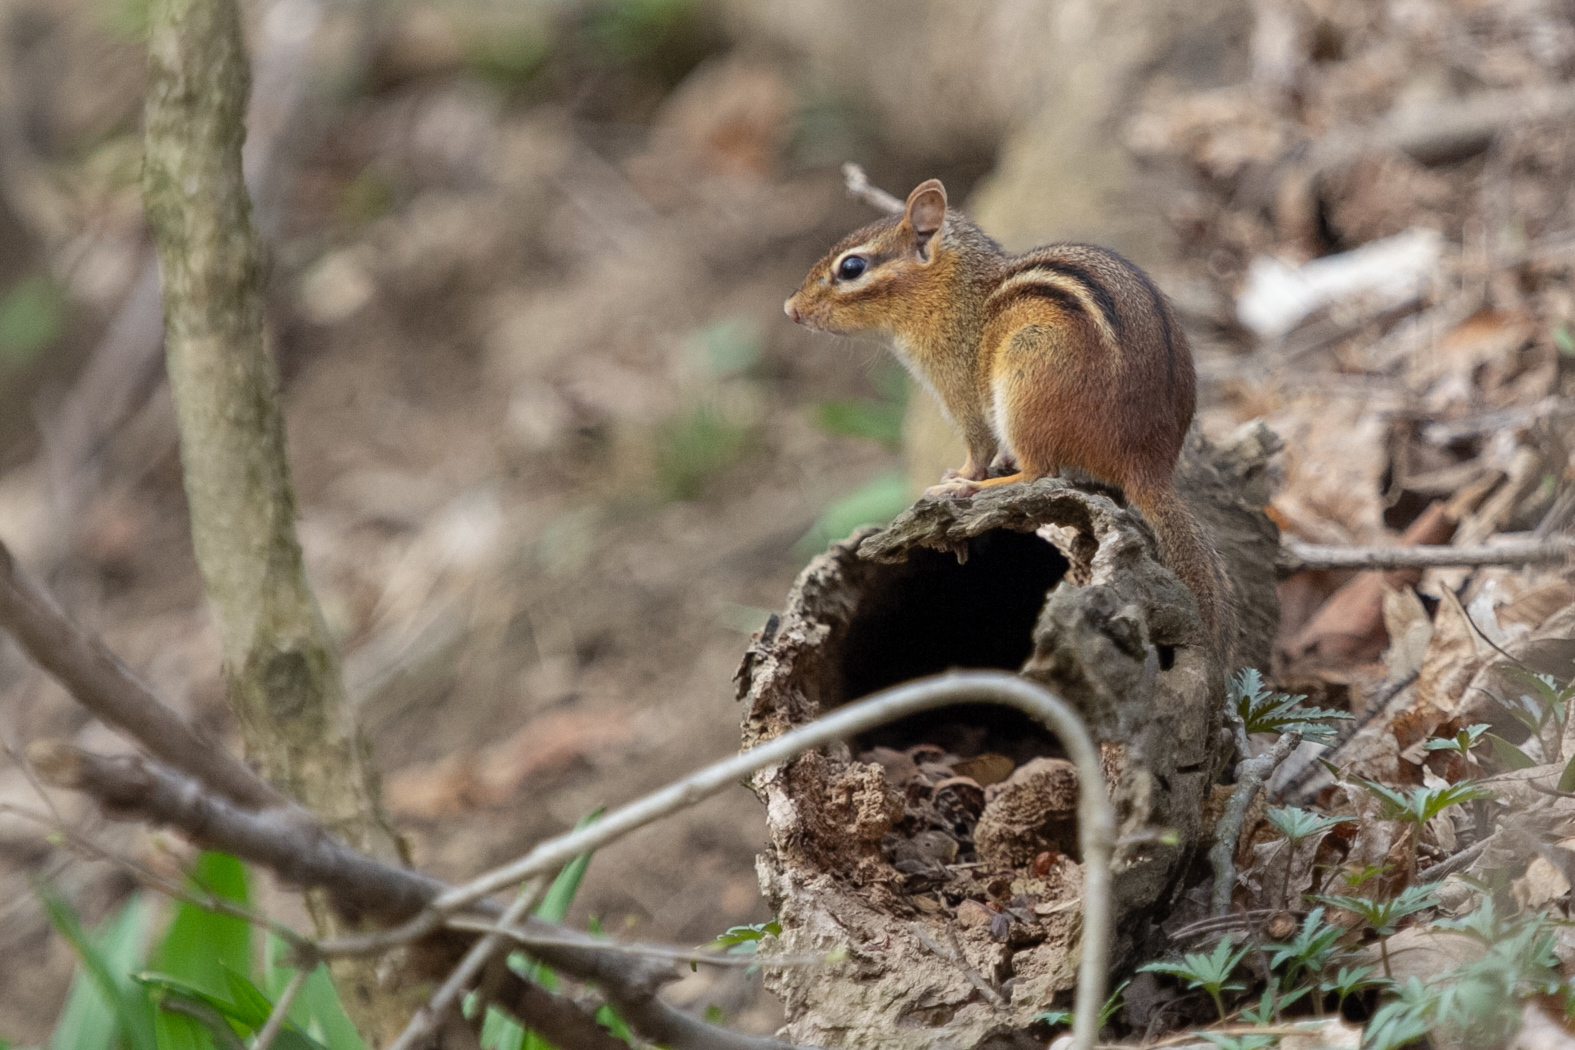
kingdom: Animalia
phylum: Chordata
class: Mammalia
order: Rodentia
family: Sciuridae
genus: Tamias
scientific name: Tamias striatus
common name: Eastern chipmunk
